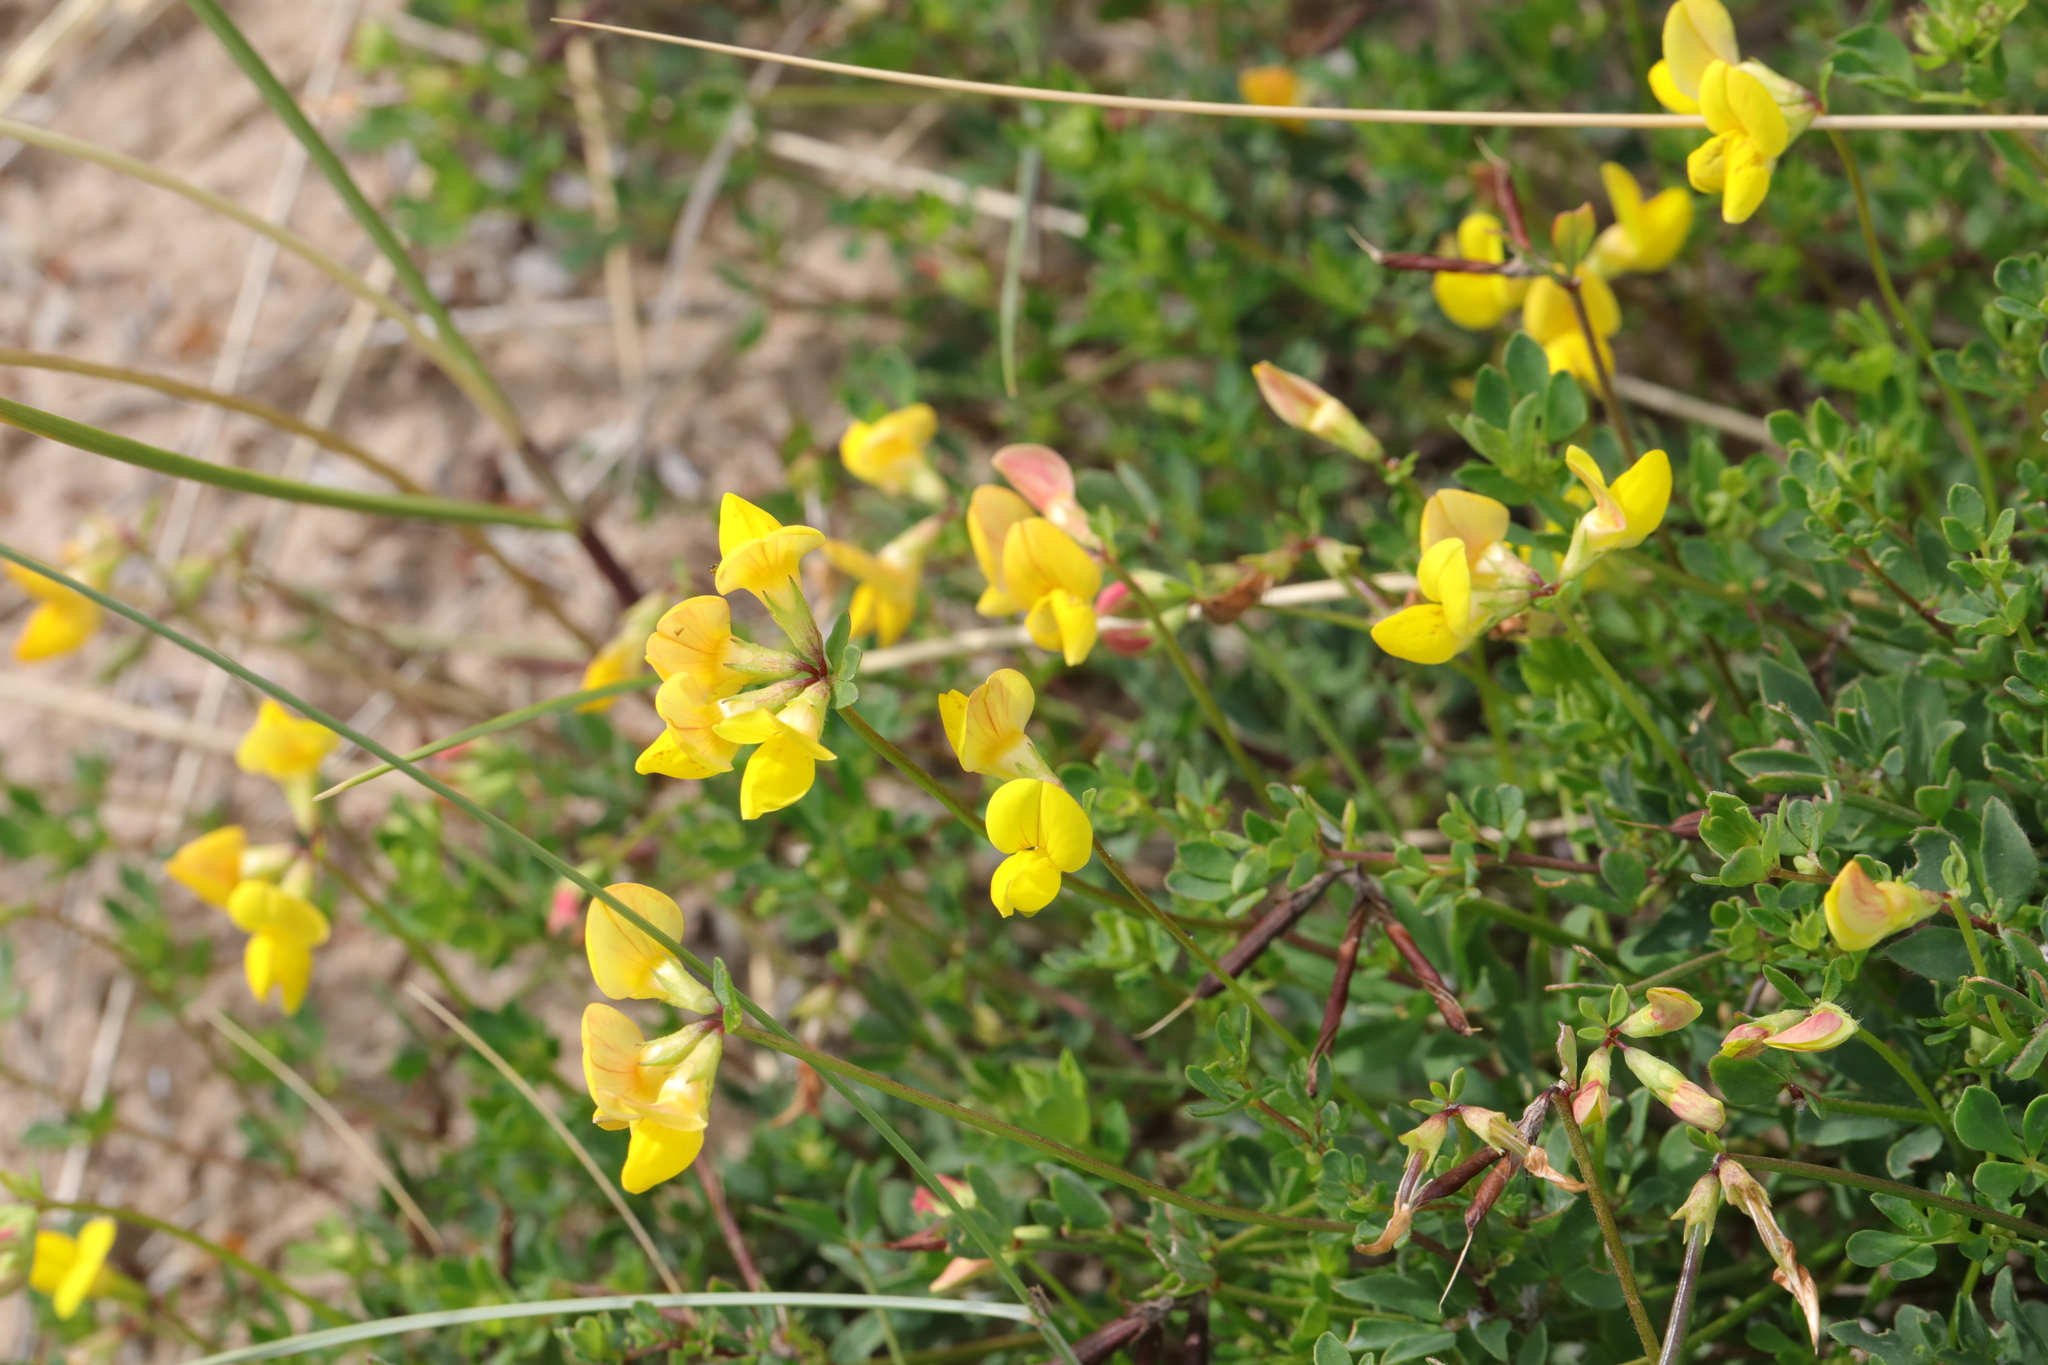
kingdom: Plantae
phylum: Tracheophyta
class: Magnoliopsida
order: Fabales
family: Fabaceae
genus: Lotus
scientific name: Lotus corniculatus
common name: Common bird's-foot-trefoil
